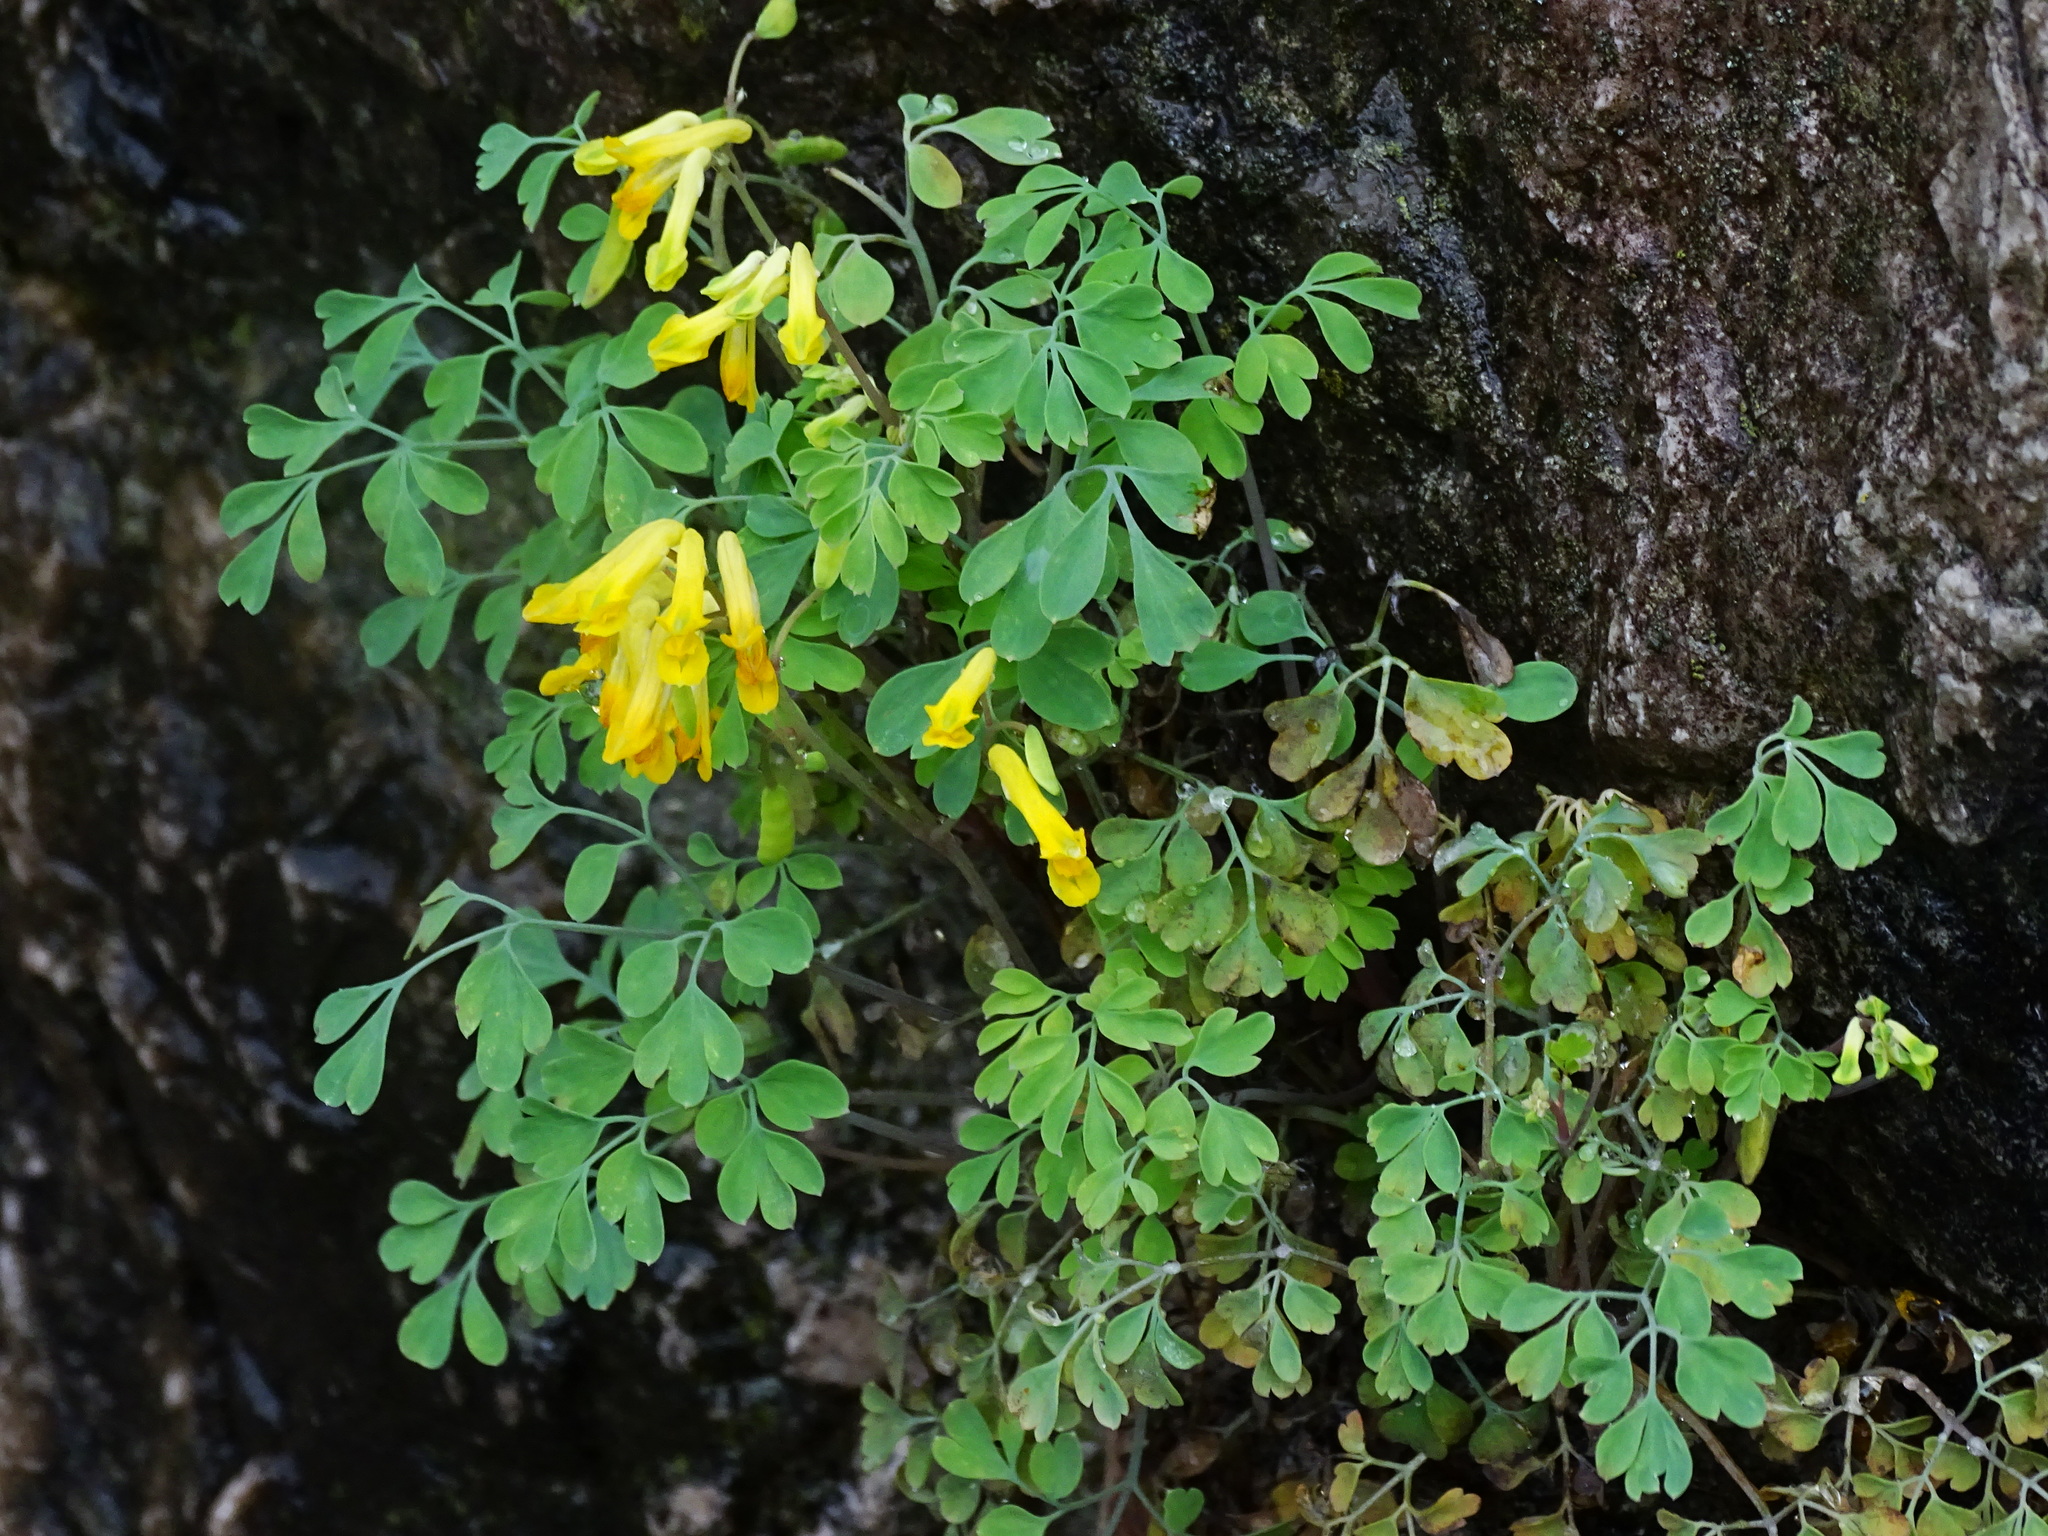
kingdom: Plantae
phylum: Tracheophyta
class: Magnoliopsida
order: Ranunculales
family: Papaveraceae
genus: Pseudofumaria
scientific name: Pseudofumaria lutea
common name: Yellow corydalis
